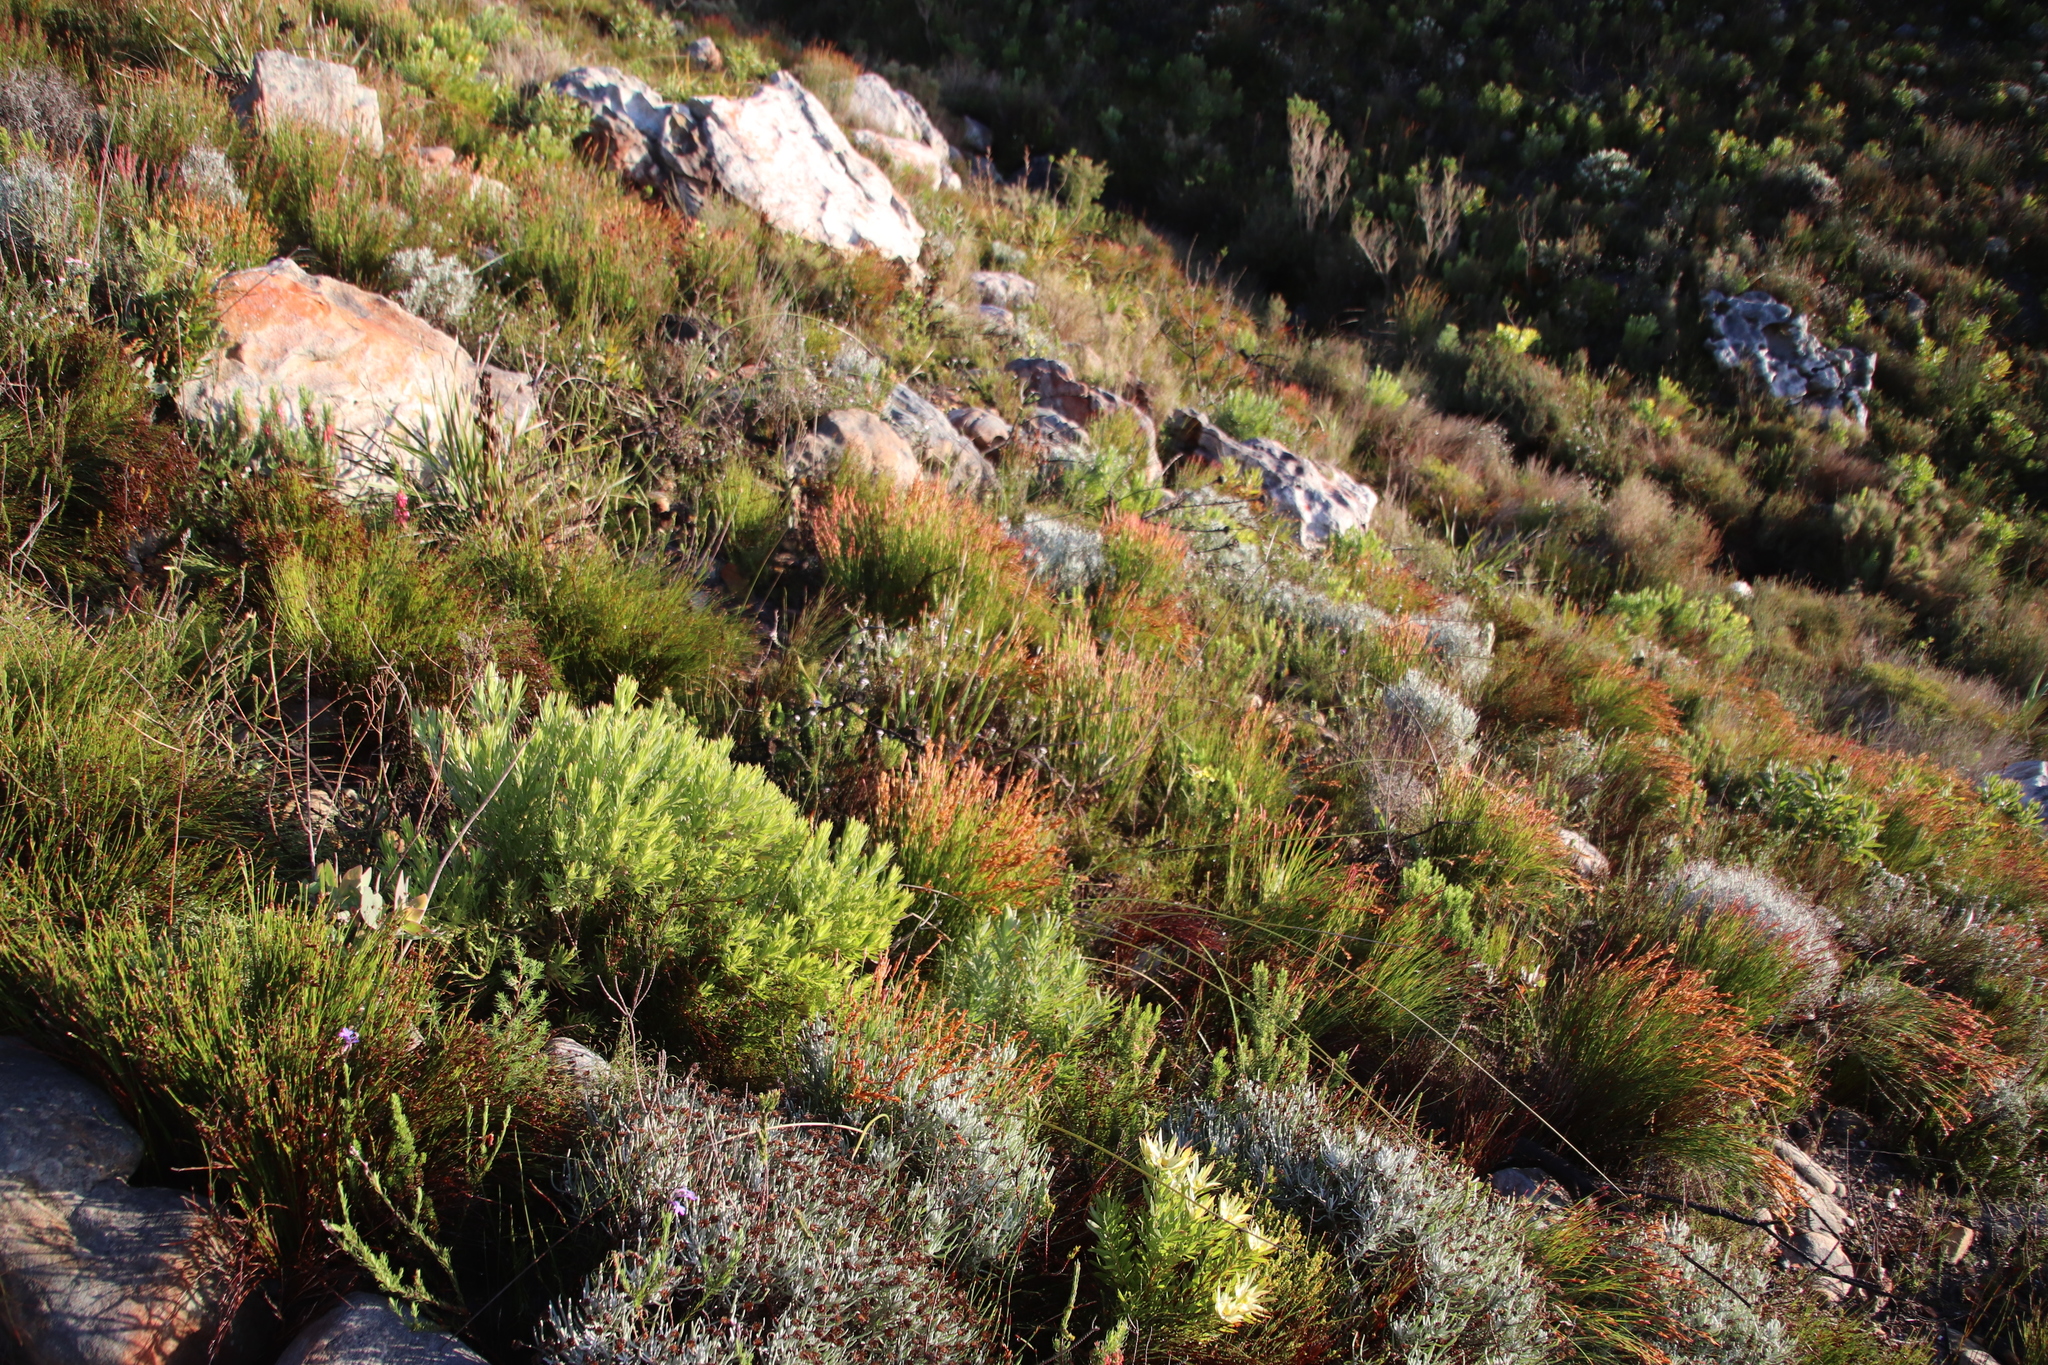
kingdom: Plantae
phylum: Tracheophyta
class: Liliopsida
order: Poales
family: Restionaceae
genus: Elegia
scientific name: Elegia stipularis
